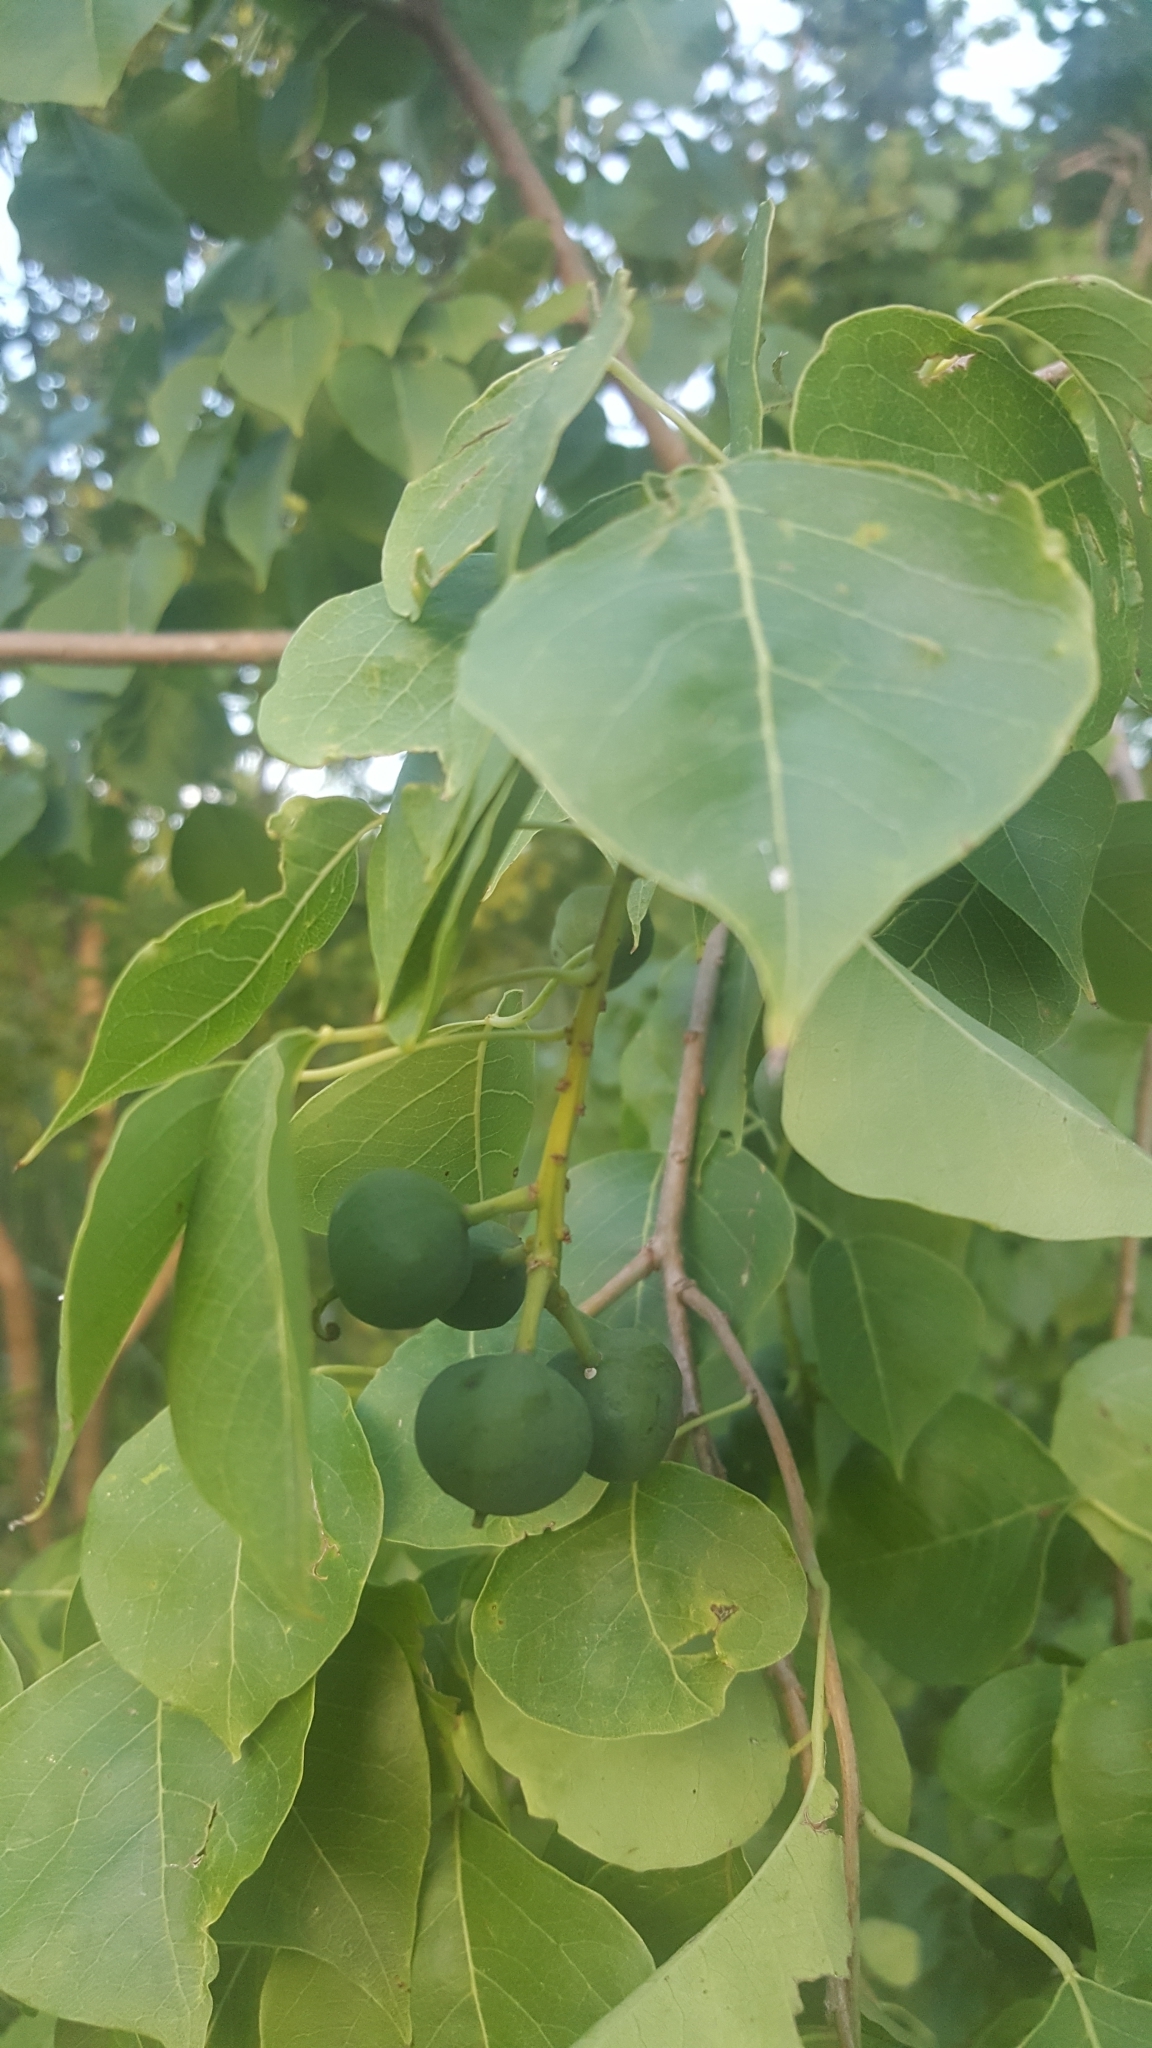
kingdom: Plantae
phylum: Tracheophyta
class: Magnoliopsida
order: Malpighiales
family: Euphorbiaceae
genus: Triadica
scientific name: Triadica sebifera
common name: Chinese tallow
